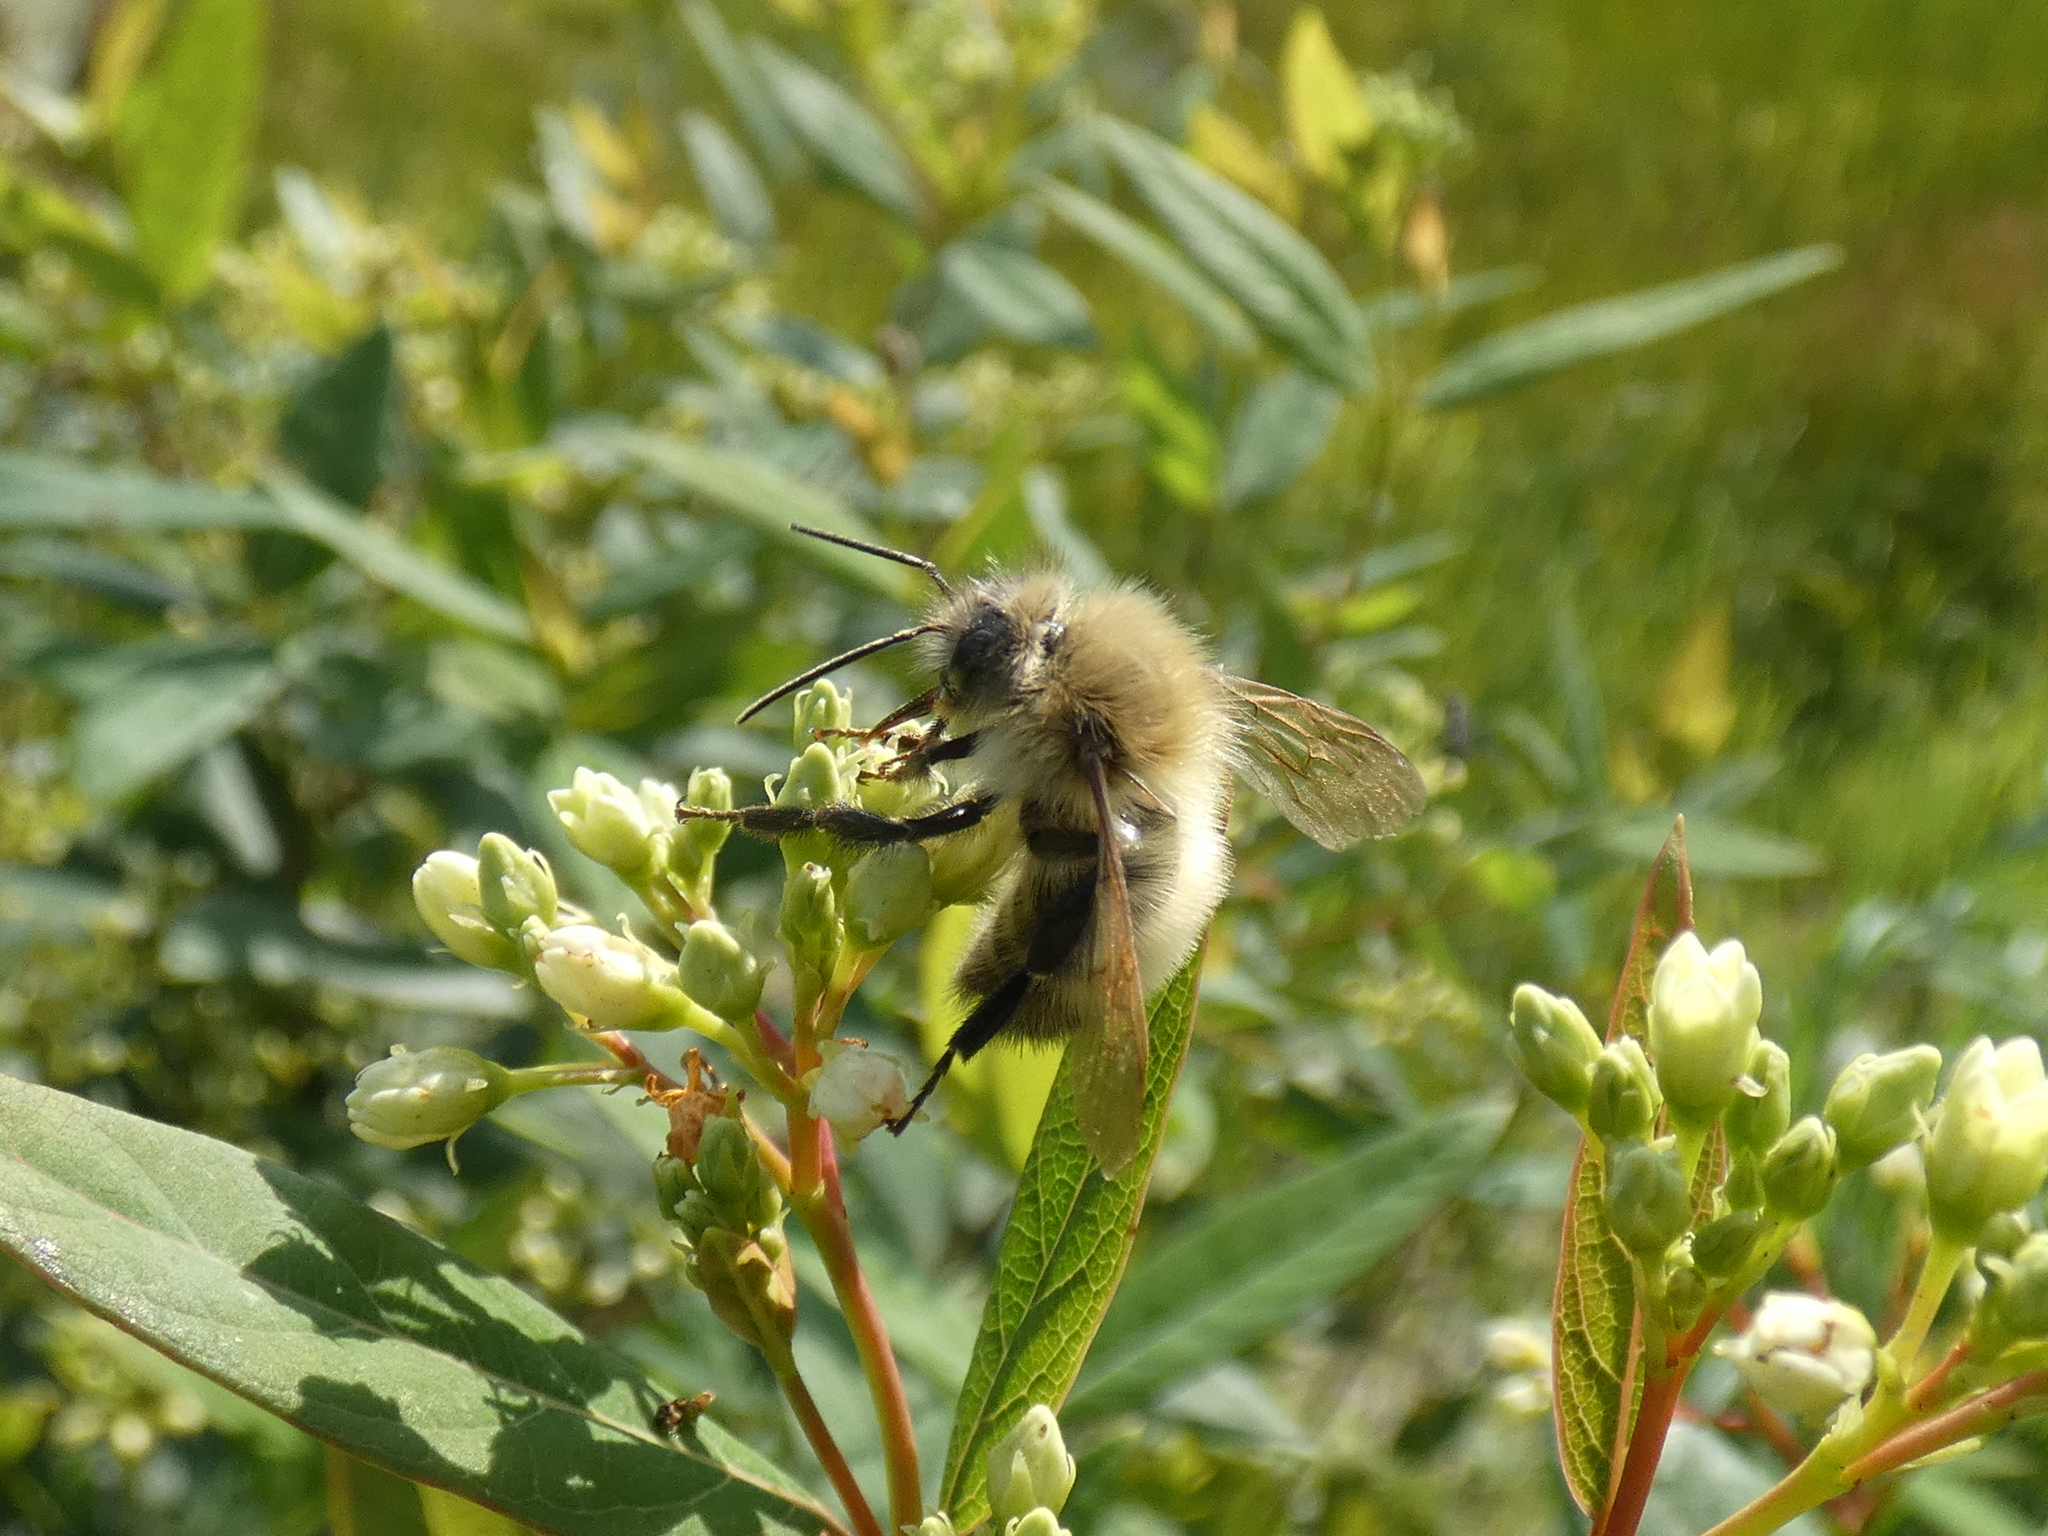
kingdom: Animalia
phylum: Arthropoda
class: Insecta
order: Hymenoptera
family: Apidae
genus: Bombus
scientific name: Bombus perplexus
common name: Confusing bumble bee
